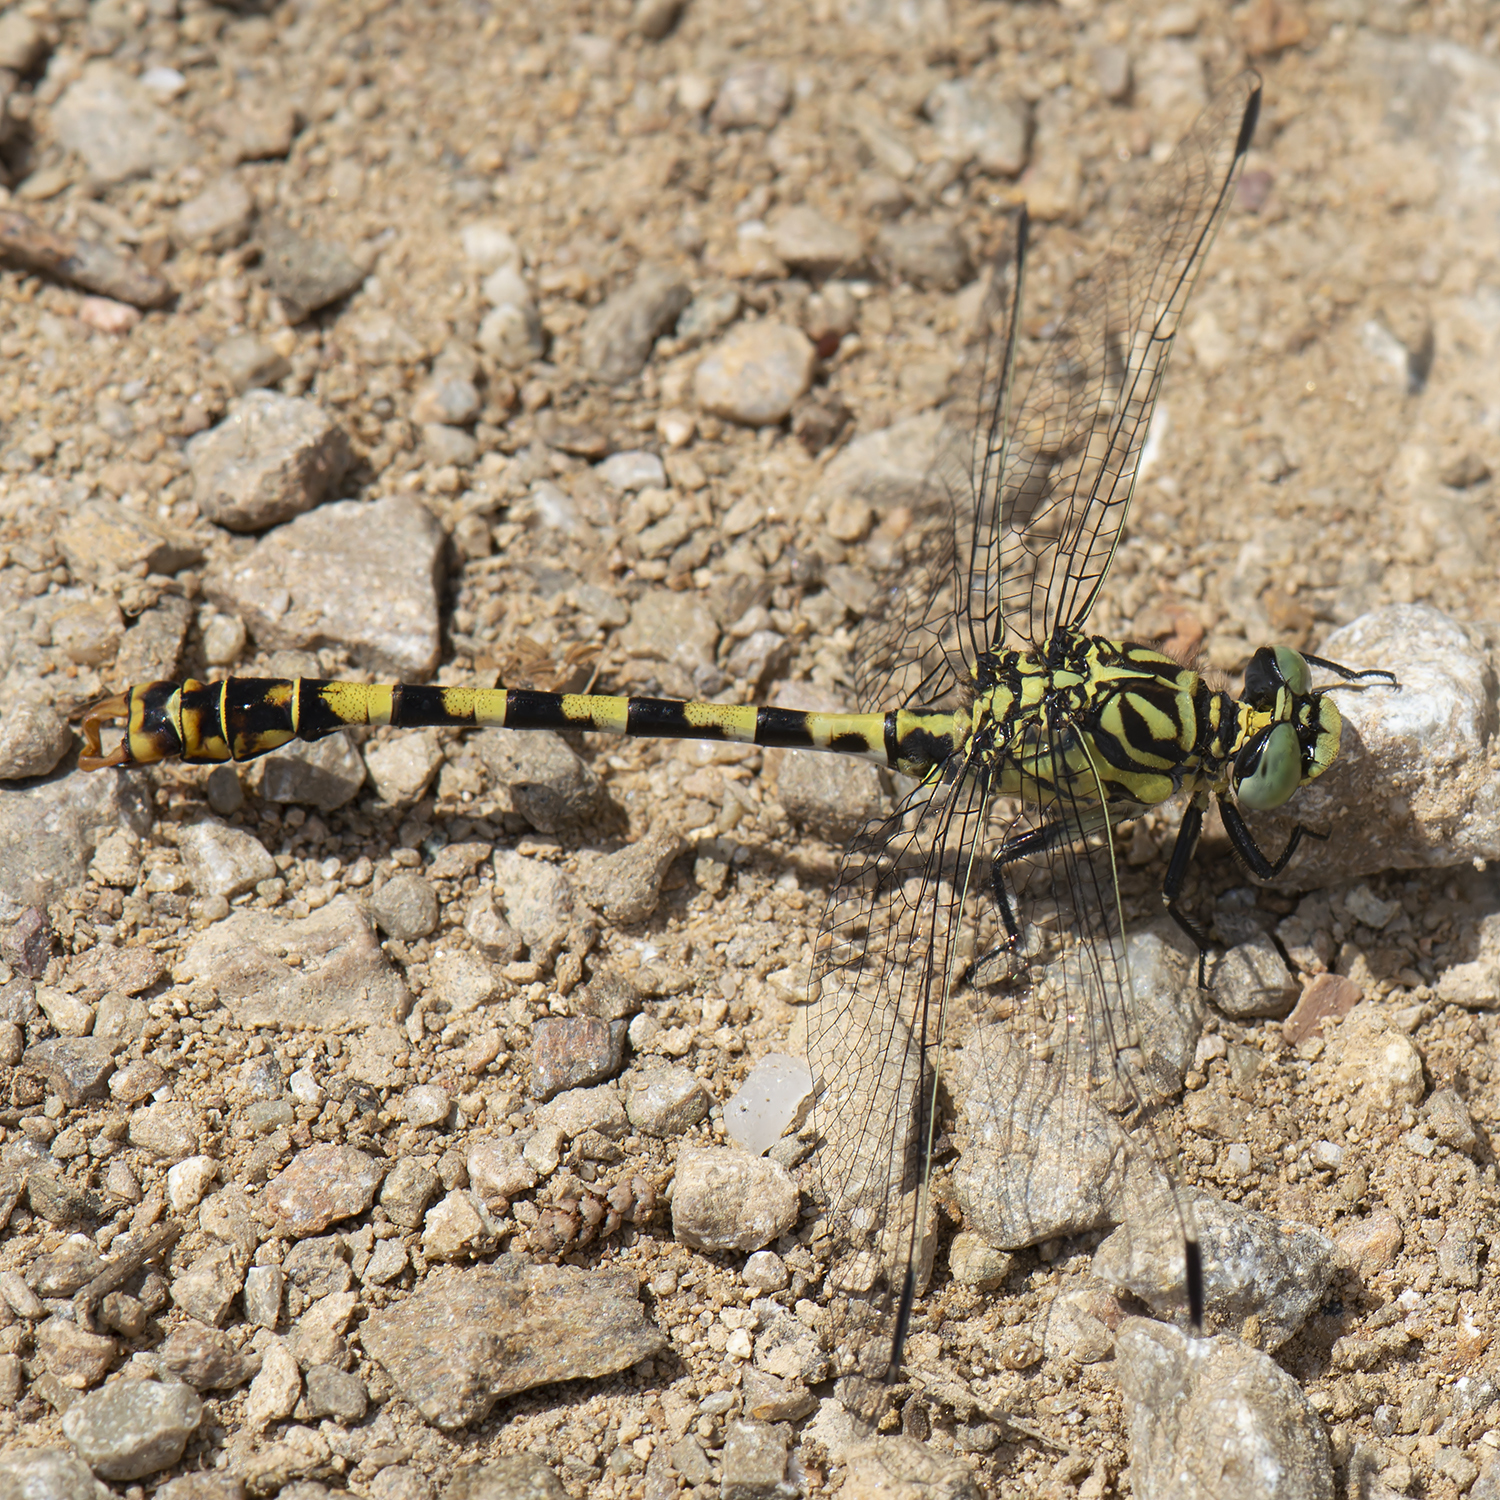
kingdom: Animalia
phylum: Arthropoda
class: Insecta
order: Odonata
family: Gomphidae
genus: Onychogomphus
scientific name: Onychogomphus forcipatus
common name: Small pincertail
